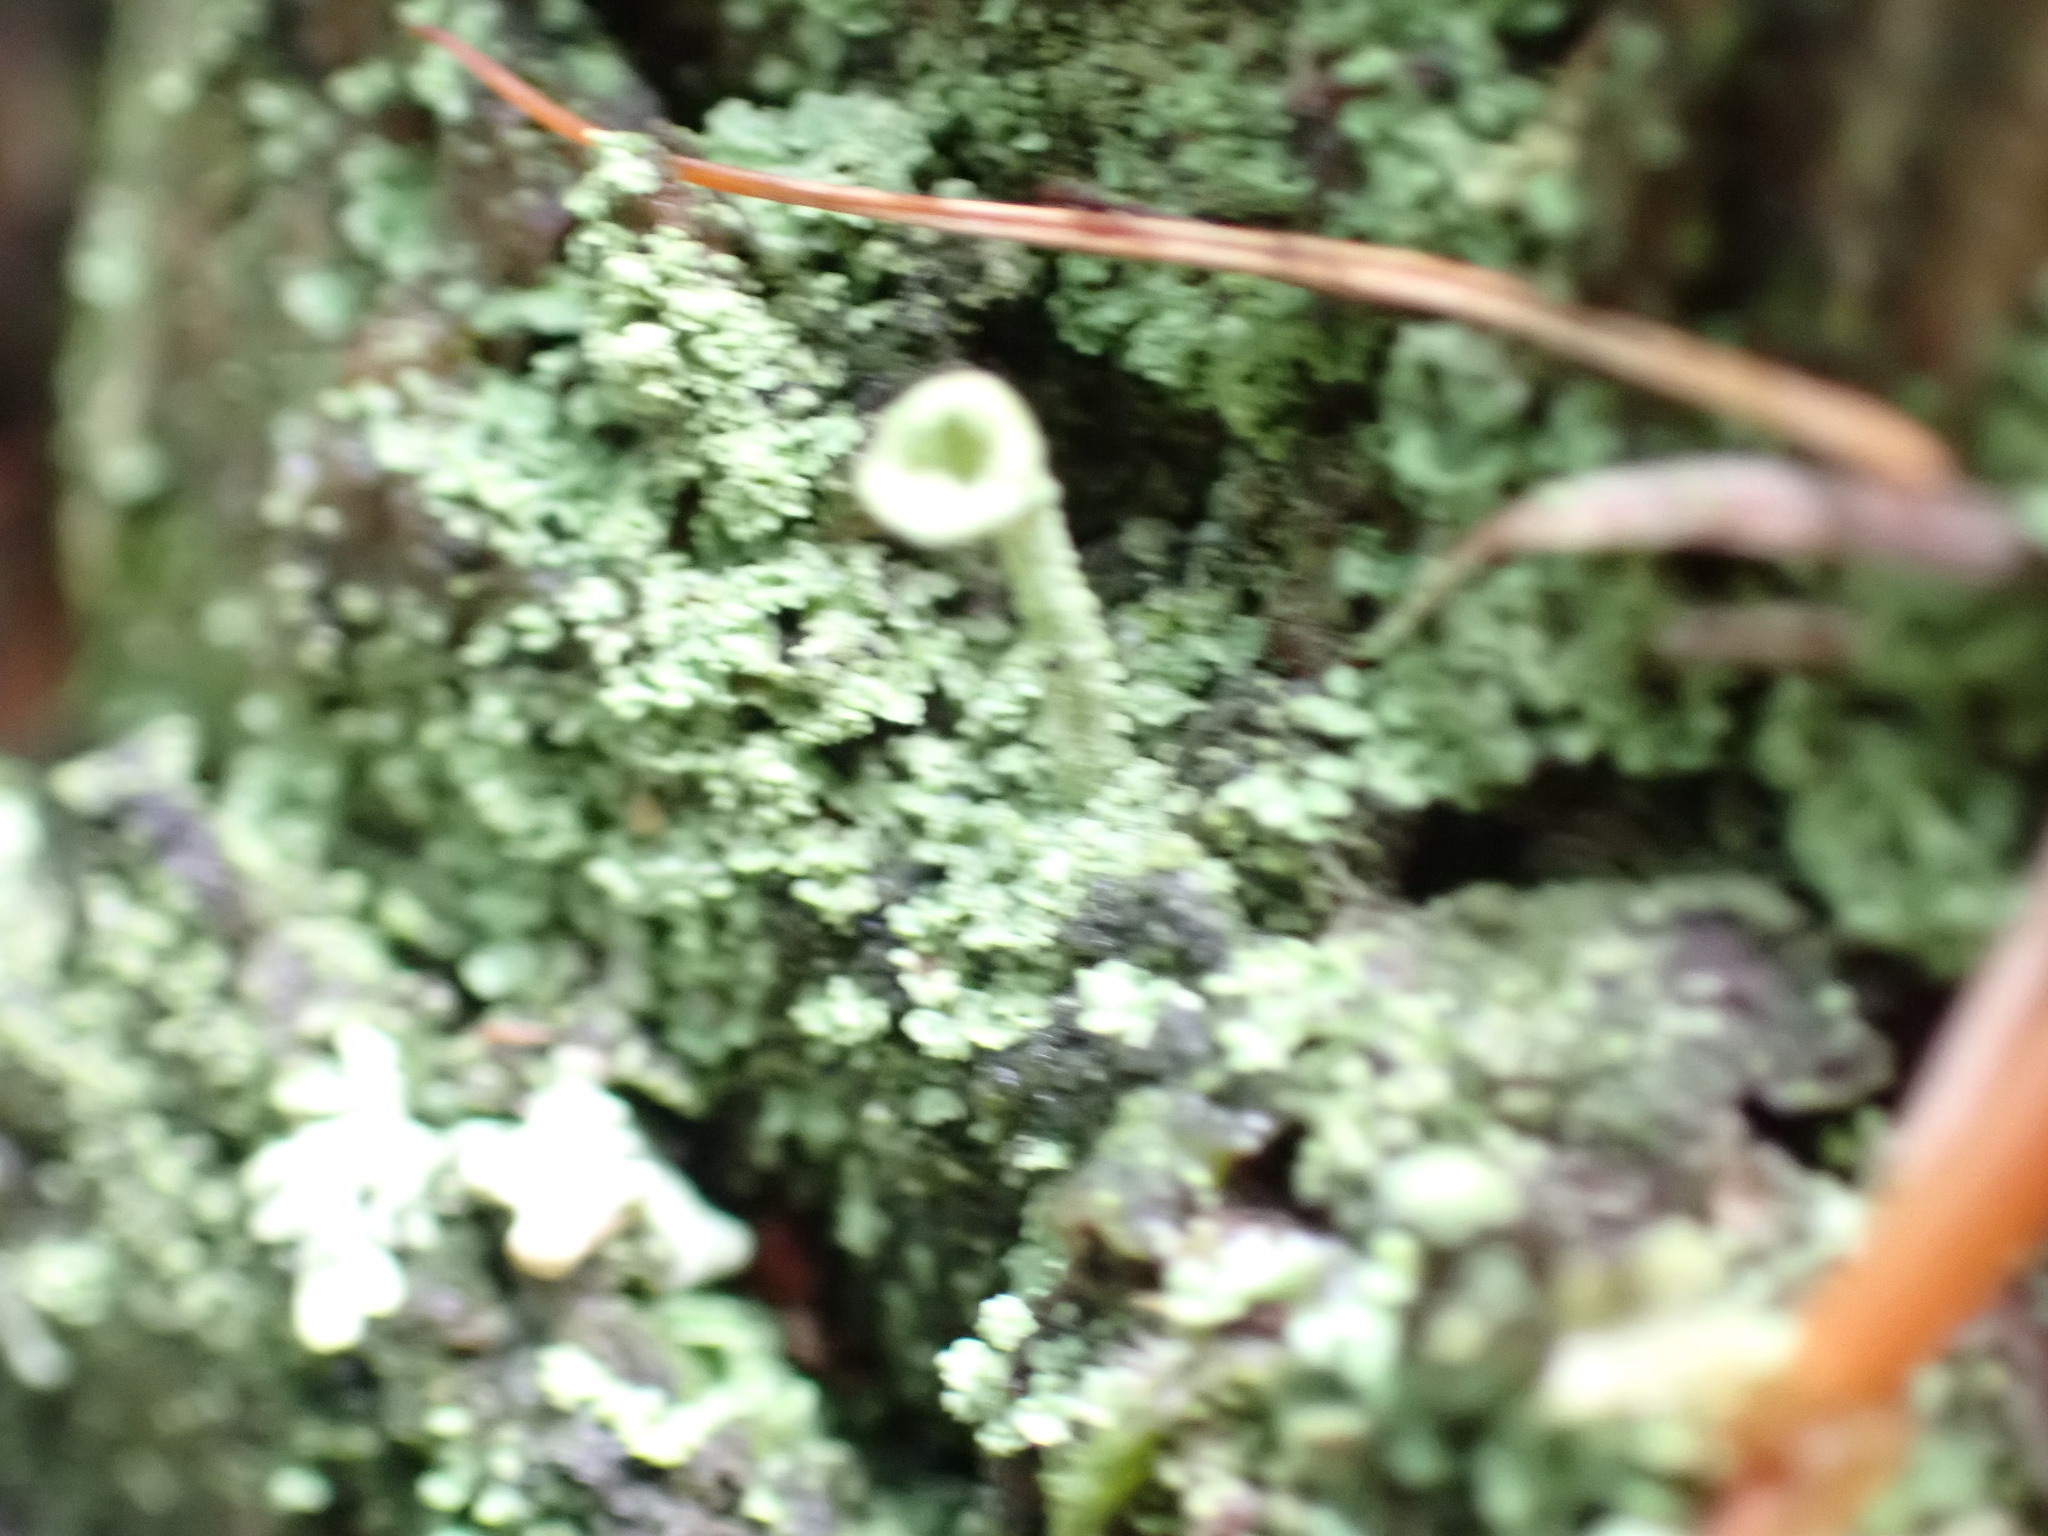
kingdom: Fungi
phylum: Ascomycota
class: Lecanoromycetes
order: Lecanorales
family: Cladoniaceae
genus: Cladonia
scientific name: Cladonia fimbriata
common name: Powdered trumpet lichen
